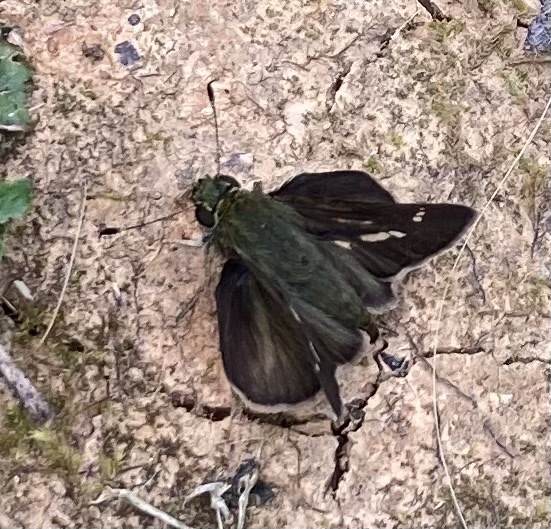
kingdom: Animalia
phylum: Arthropoda
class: Insecta
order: Lepidoptera
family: Hesperiidae
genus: Vernia
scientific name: Vernia verna
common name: Little glassywing
